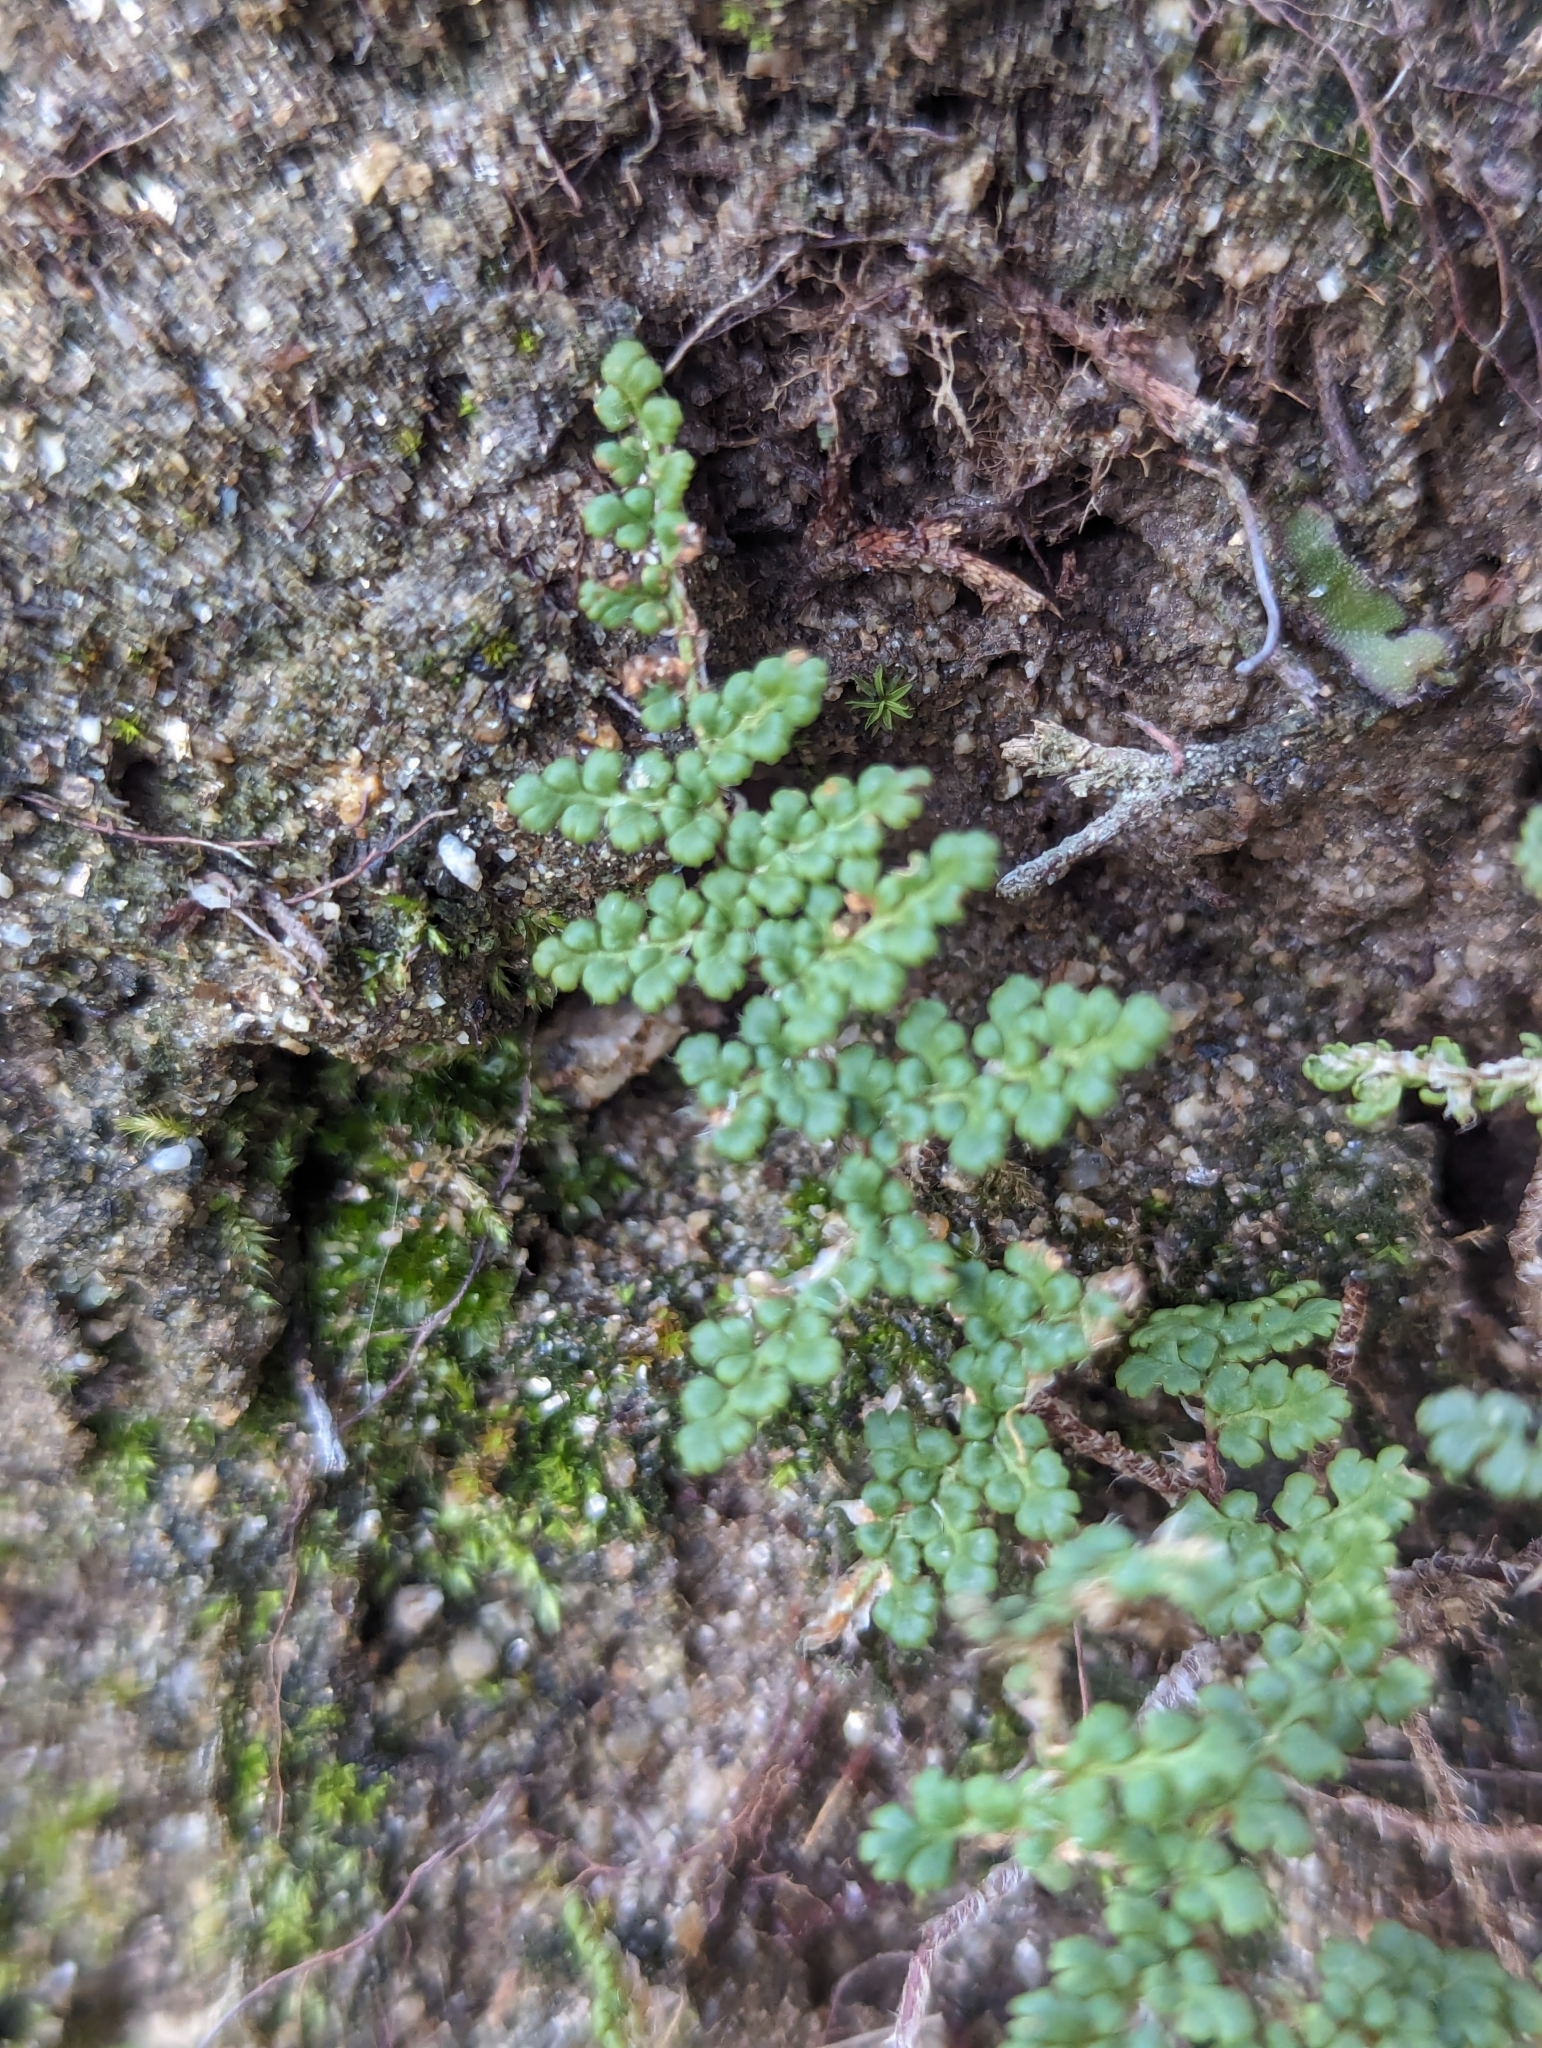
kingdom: Plantae
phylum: Tracheophyta
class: Polypodiopsida
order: Polypodiales
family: Pteridaceae
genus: Myriopteris
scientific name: Myriopteris fendleri
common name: Fendler's lip fern
